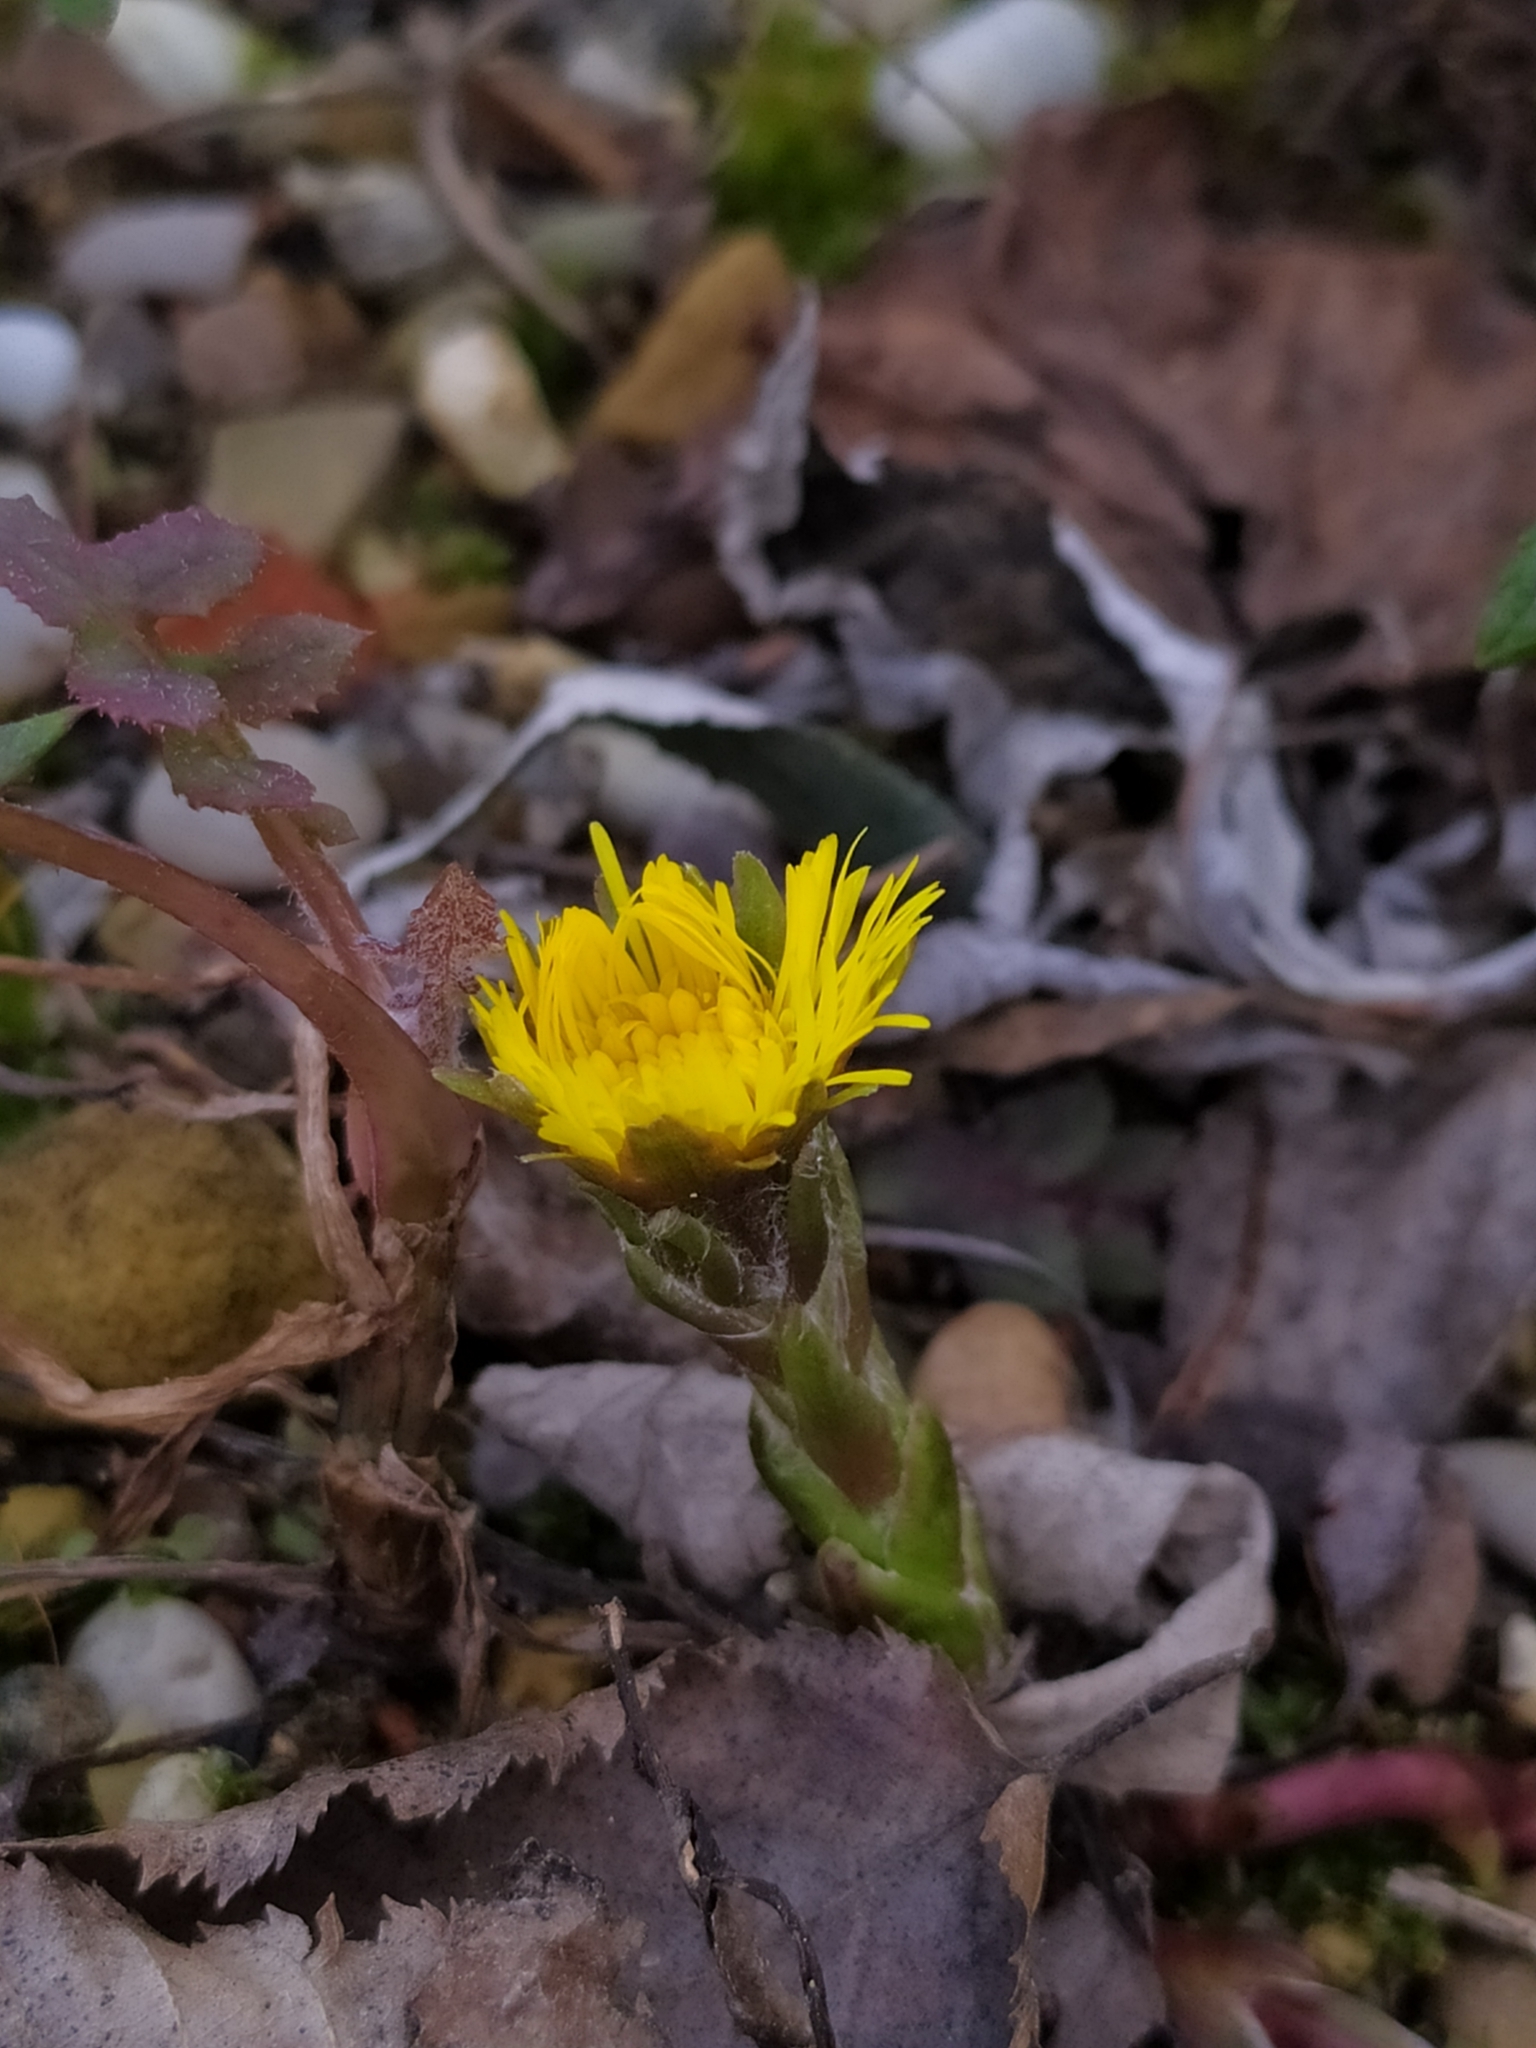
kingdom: Plantae
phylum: Tracheophyta
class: Magnoliopsida
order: Asterales
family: Asteraceae
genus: Tussilago
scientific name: Tussilago farfara
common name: Coltsfoot
